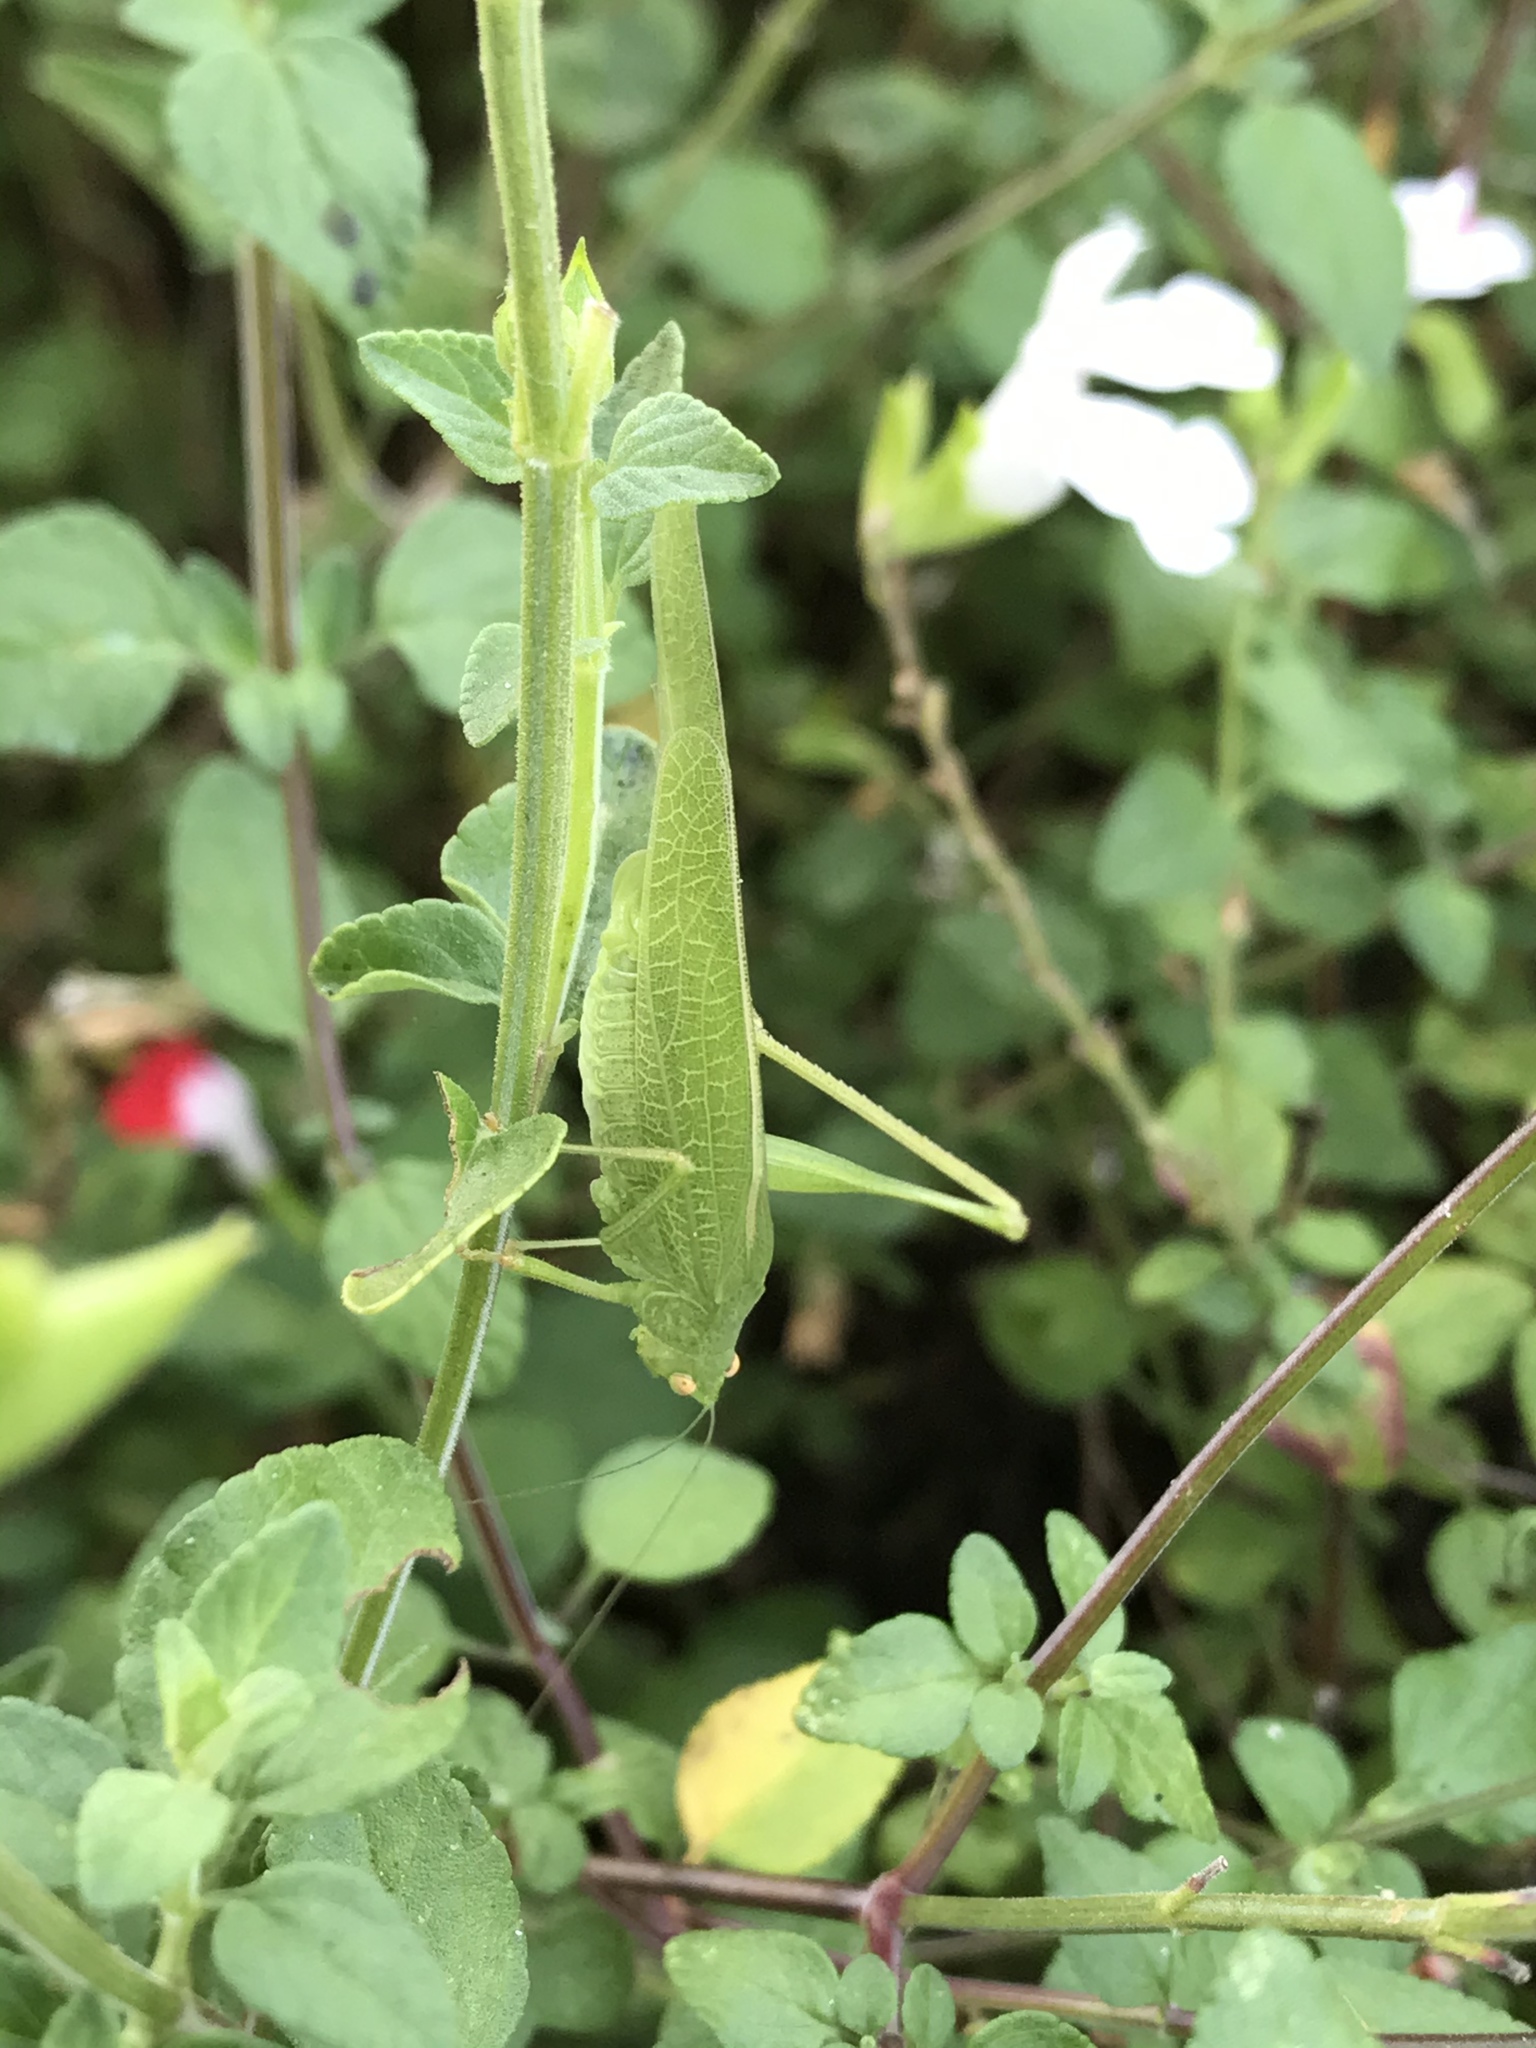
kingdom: Animalia
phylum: Arthropoda
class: Insecta
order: Orthoptera
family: Tettigoniidae
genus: Phaneroptera
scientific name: Phaneroptera nana
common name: Southern sickle bush-cricket
